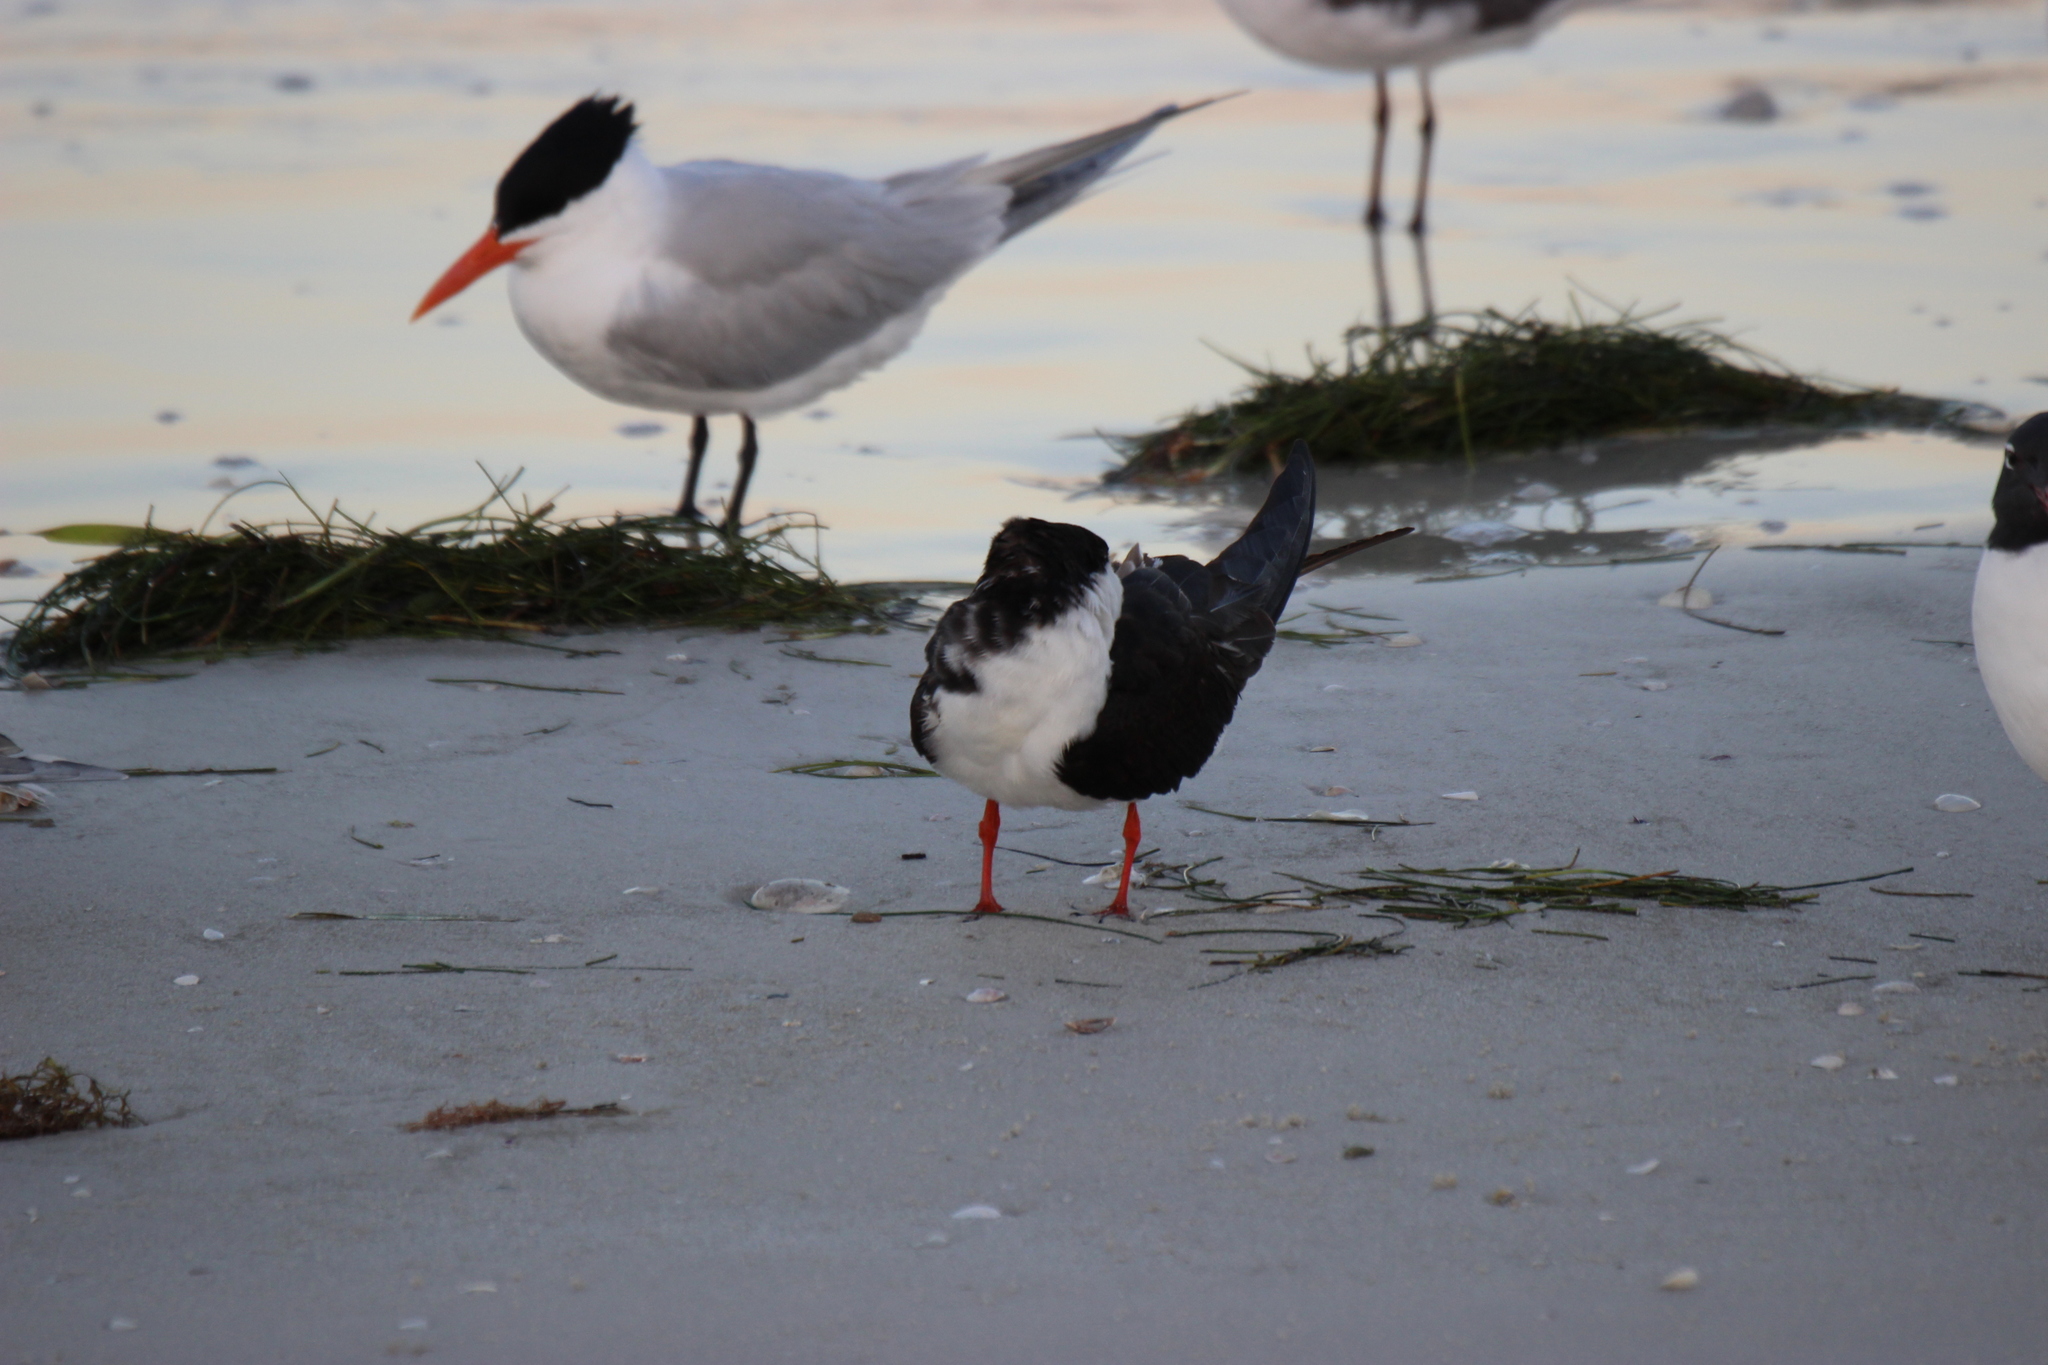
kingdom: Animalia
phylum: Chordata
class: Aves
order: Charadriiformes
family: Laridae
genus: Rynchops
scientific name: Rynchops niger
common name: Black skimmer
